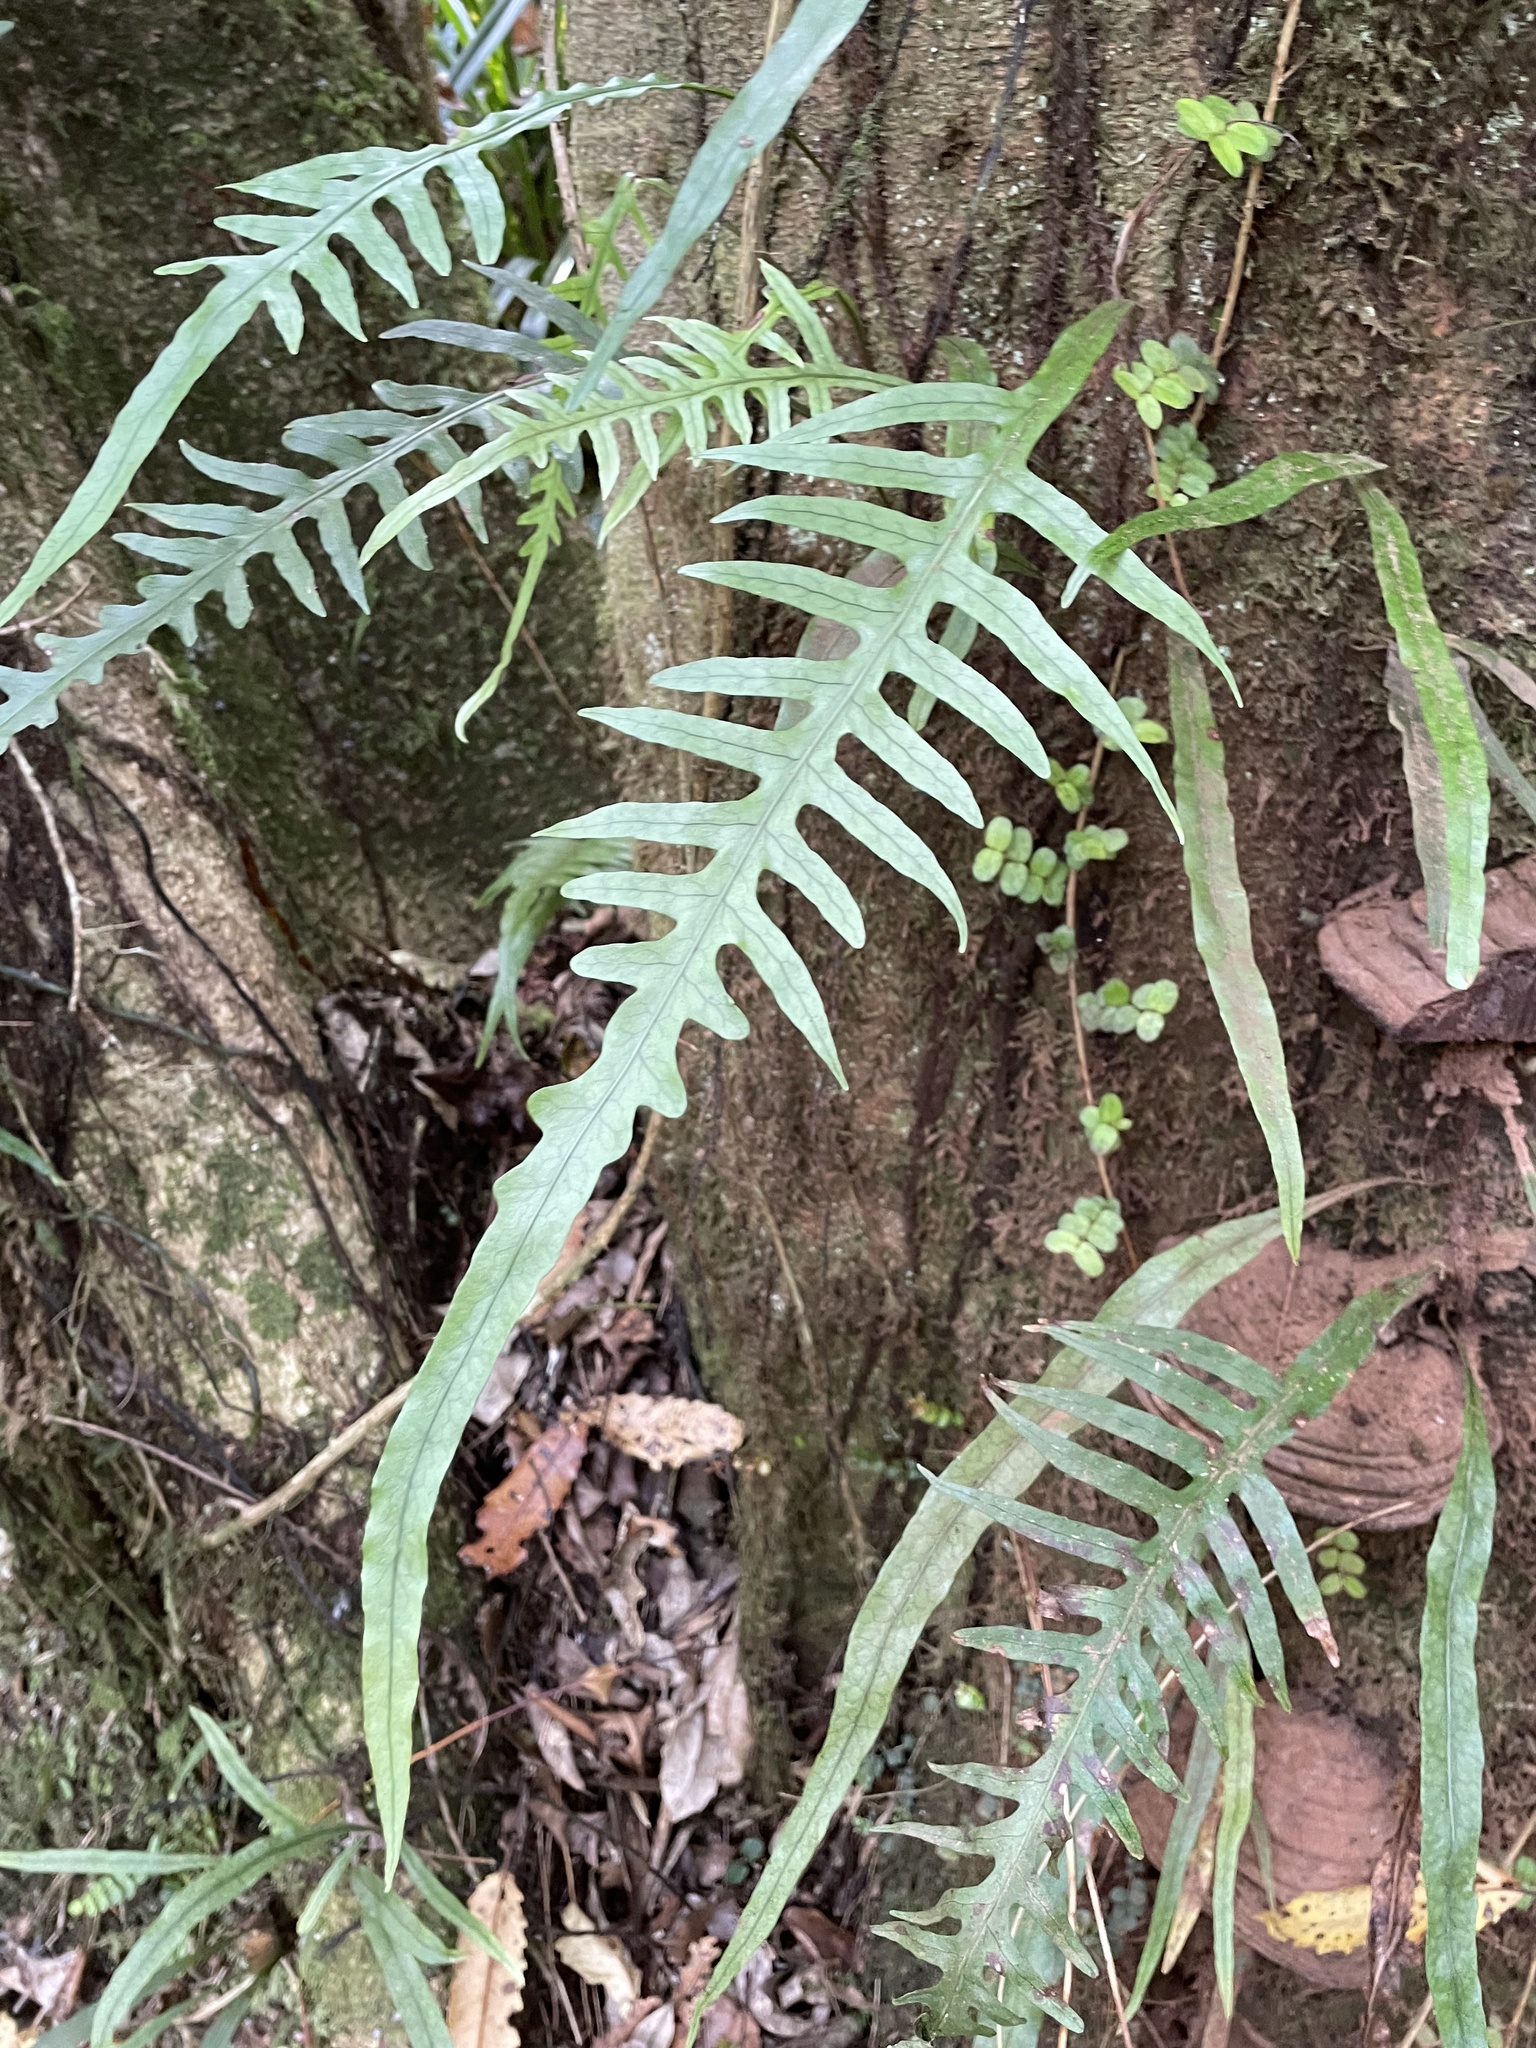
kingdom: Plantae
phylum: Tracheophyta
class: Polypodiopsida
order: Polypodiales
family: Polypodiaceae
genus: Lecanopteris
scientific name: Lecanopteris scandens
